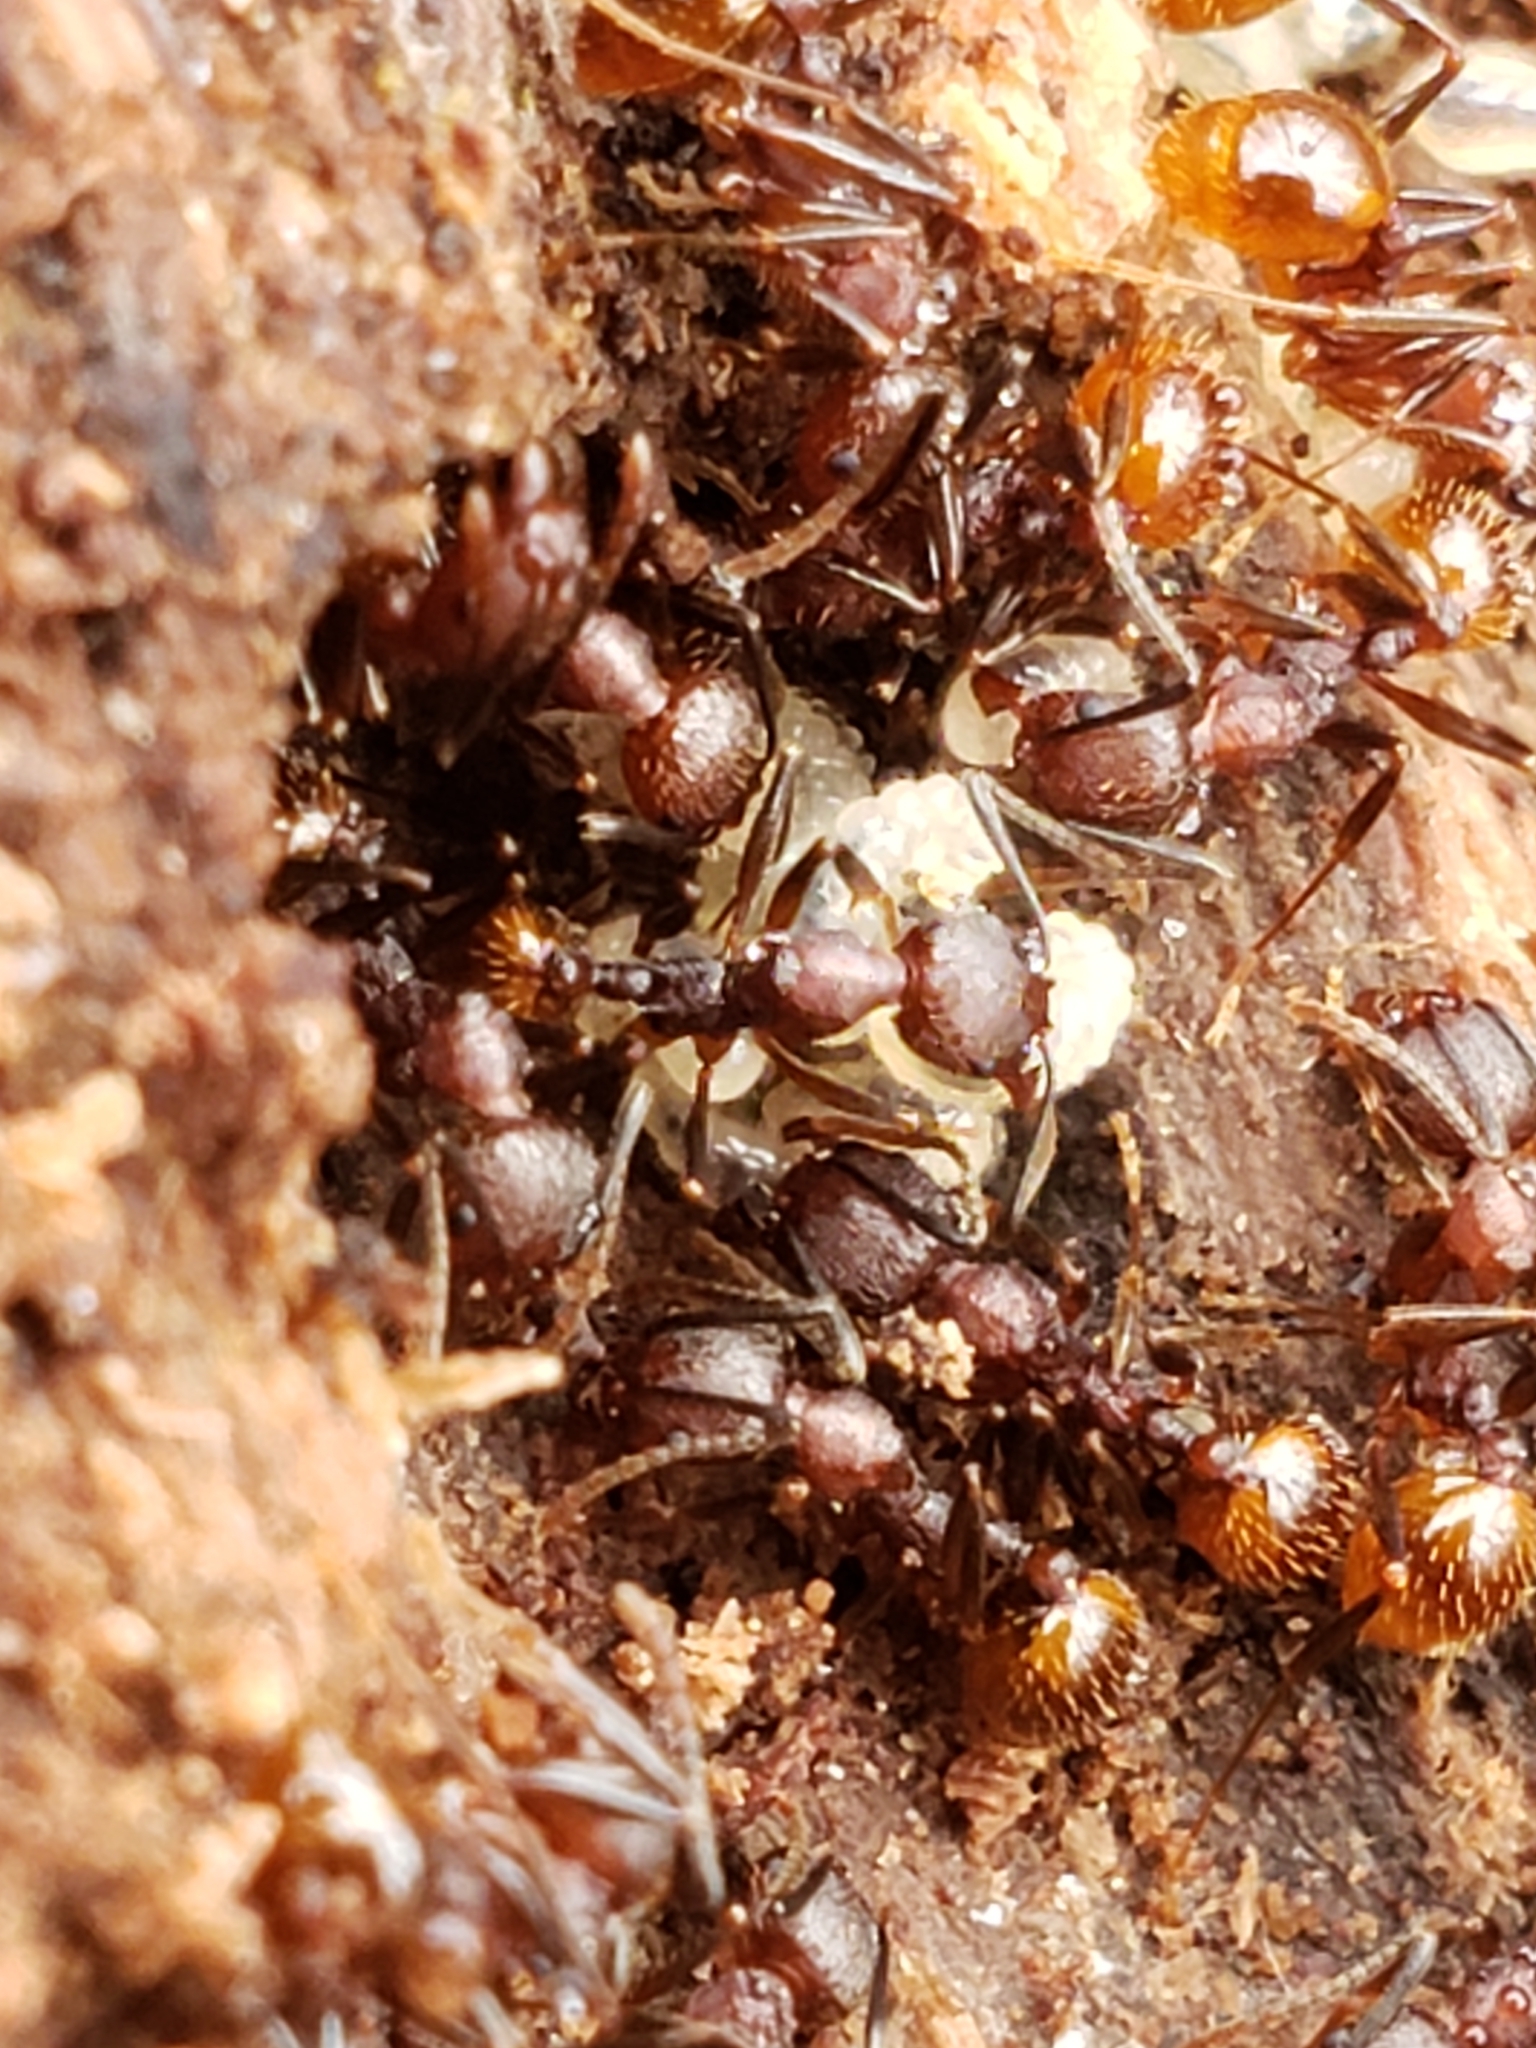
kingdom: Animalia
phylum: Arthropoda
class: Insecta
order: Hymenoptera
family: Formicidae
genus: Aphaenogaster
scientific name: Aphaenogaster fulva
